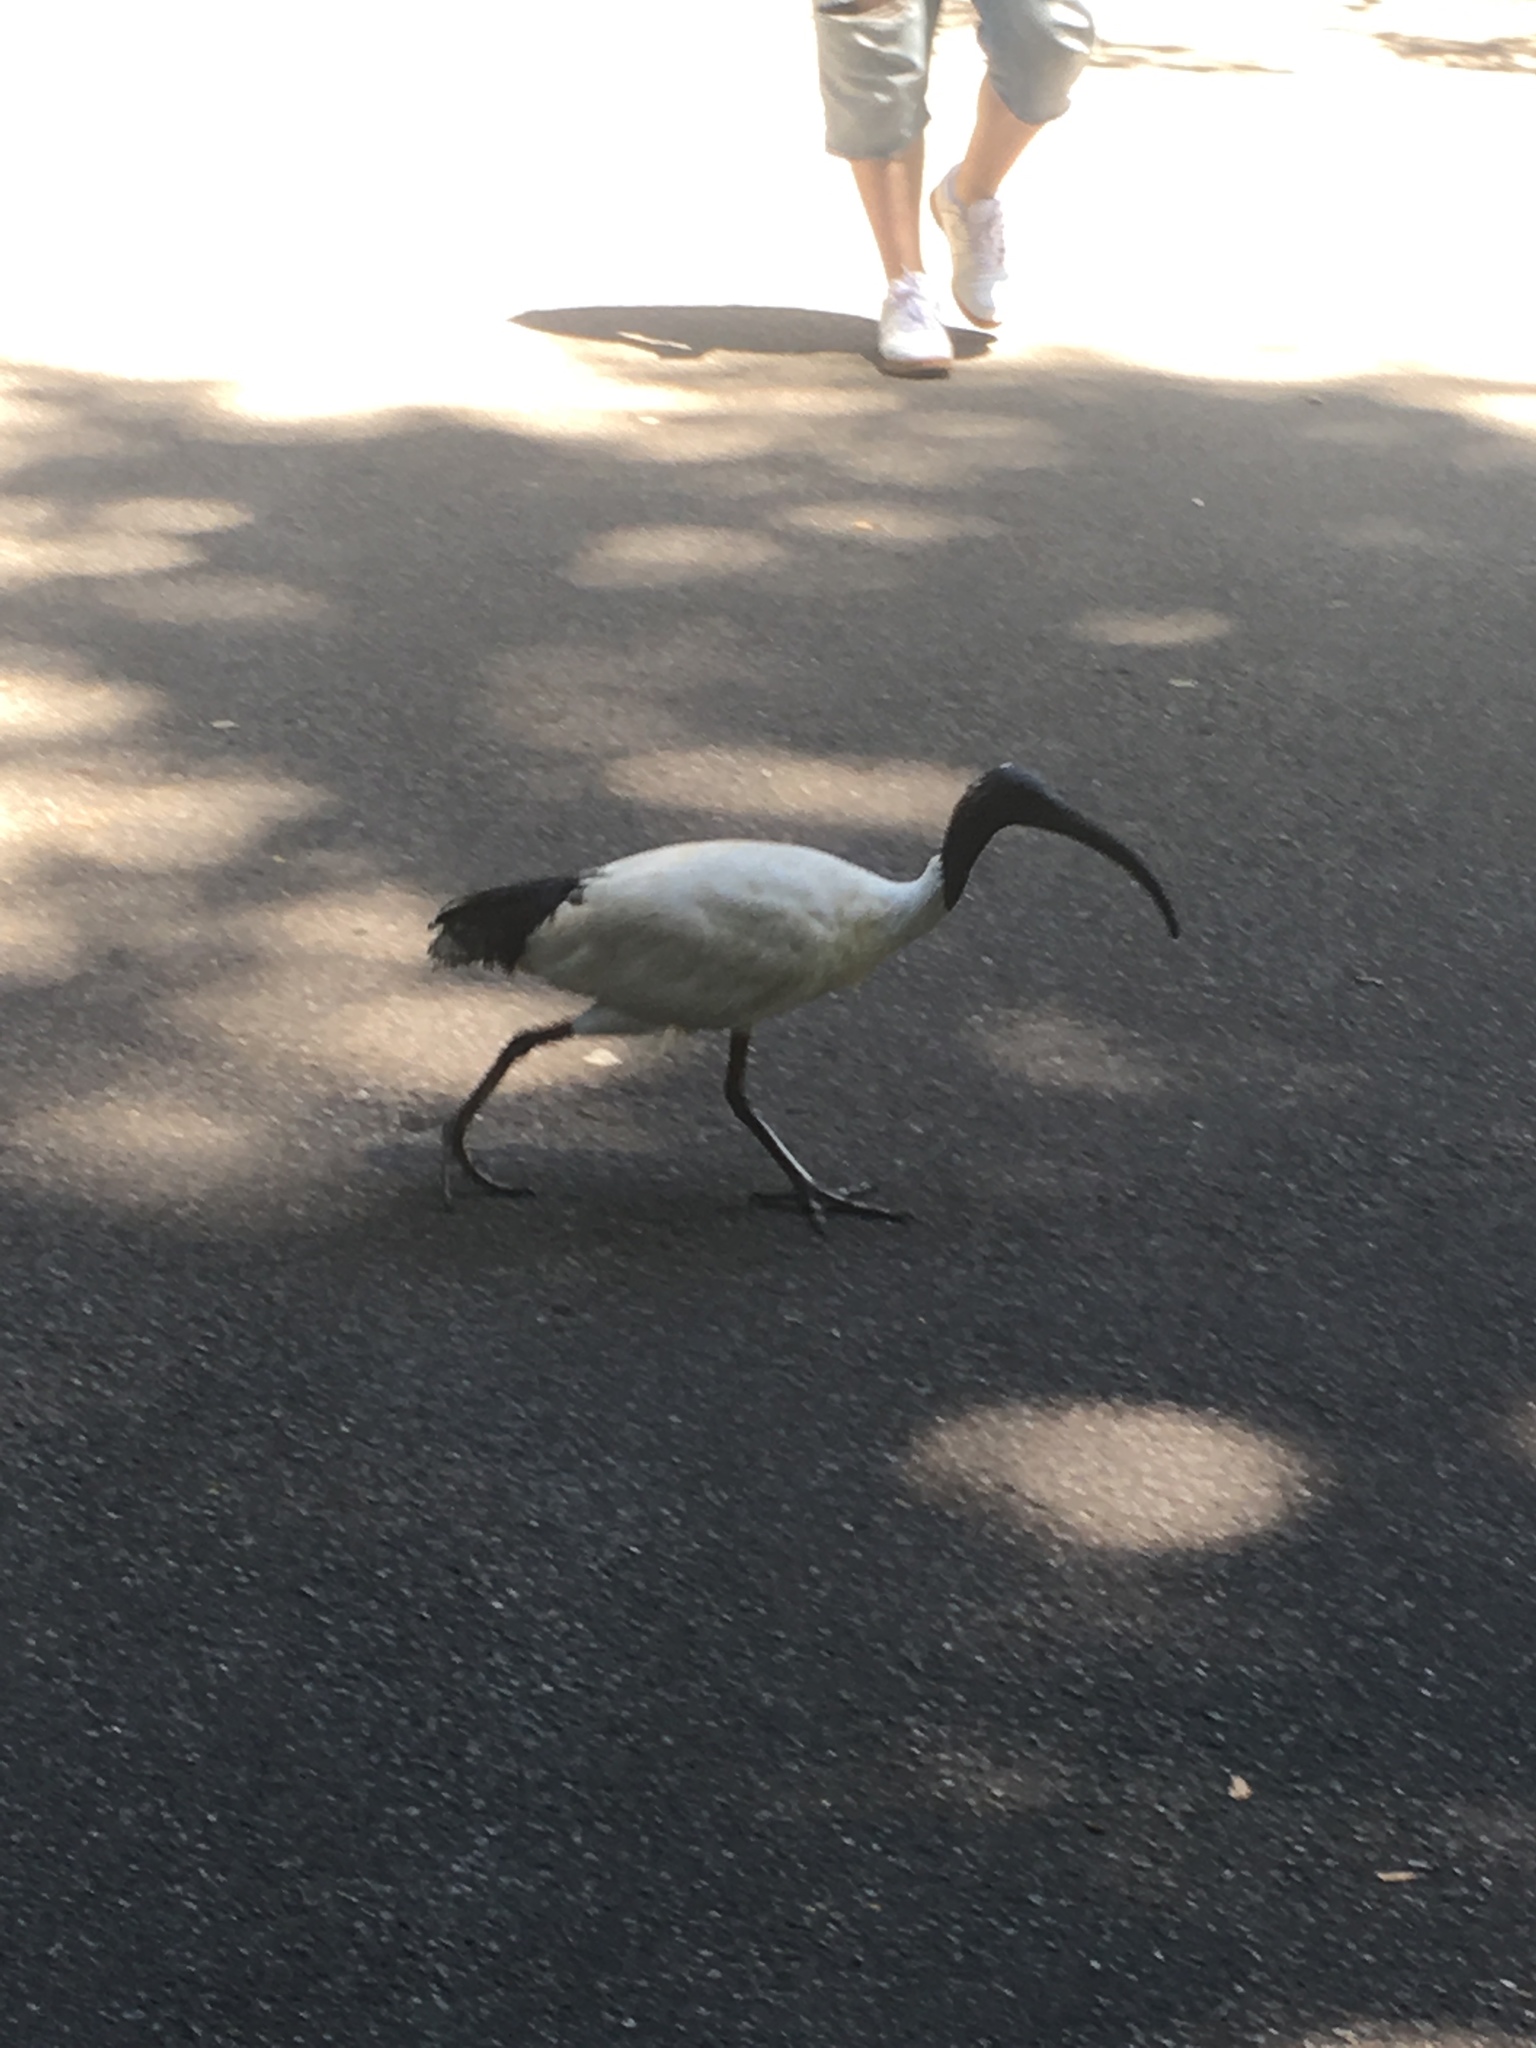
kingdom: Animalia
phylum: Chordata
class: Aves
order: Pelecaniformes
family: Threskiornithidae
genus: Threskiornis
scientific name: Threskiornis molucca
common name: Australian white ibis
